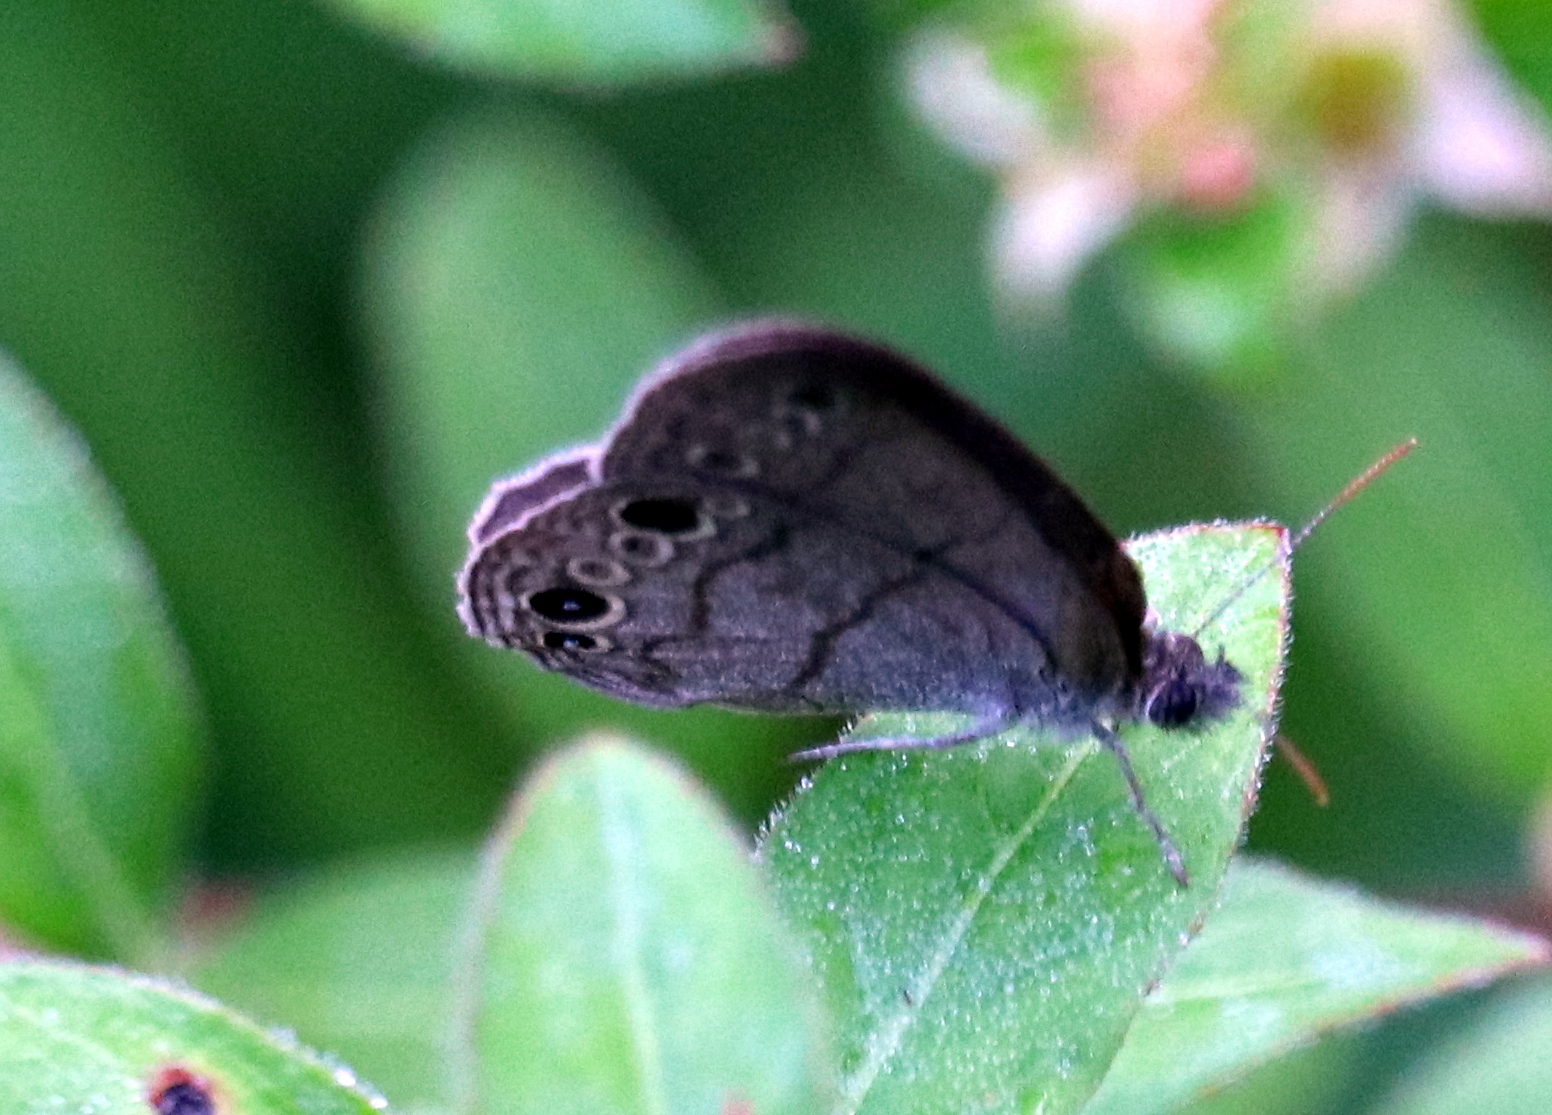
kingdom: Animalia
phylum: Arthropoda
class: Insecta
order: Lepidoptera
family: Nymphalidae
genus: Hermeuptychia
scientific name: Hermeuptychia hermes
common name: Hermes satyr
